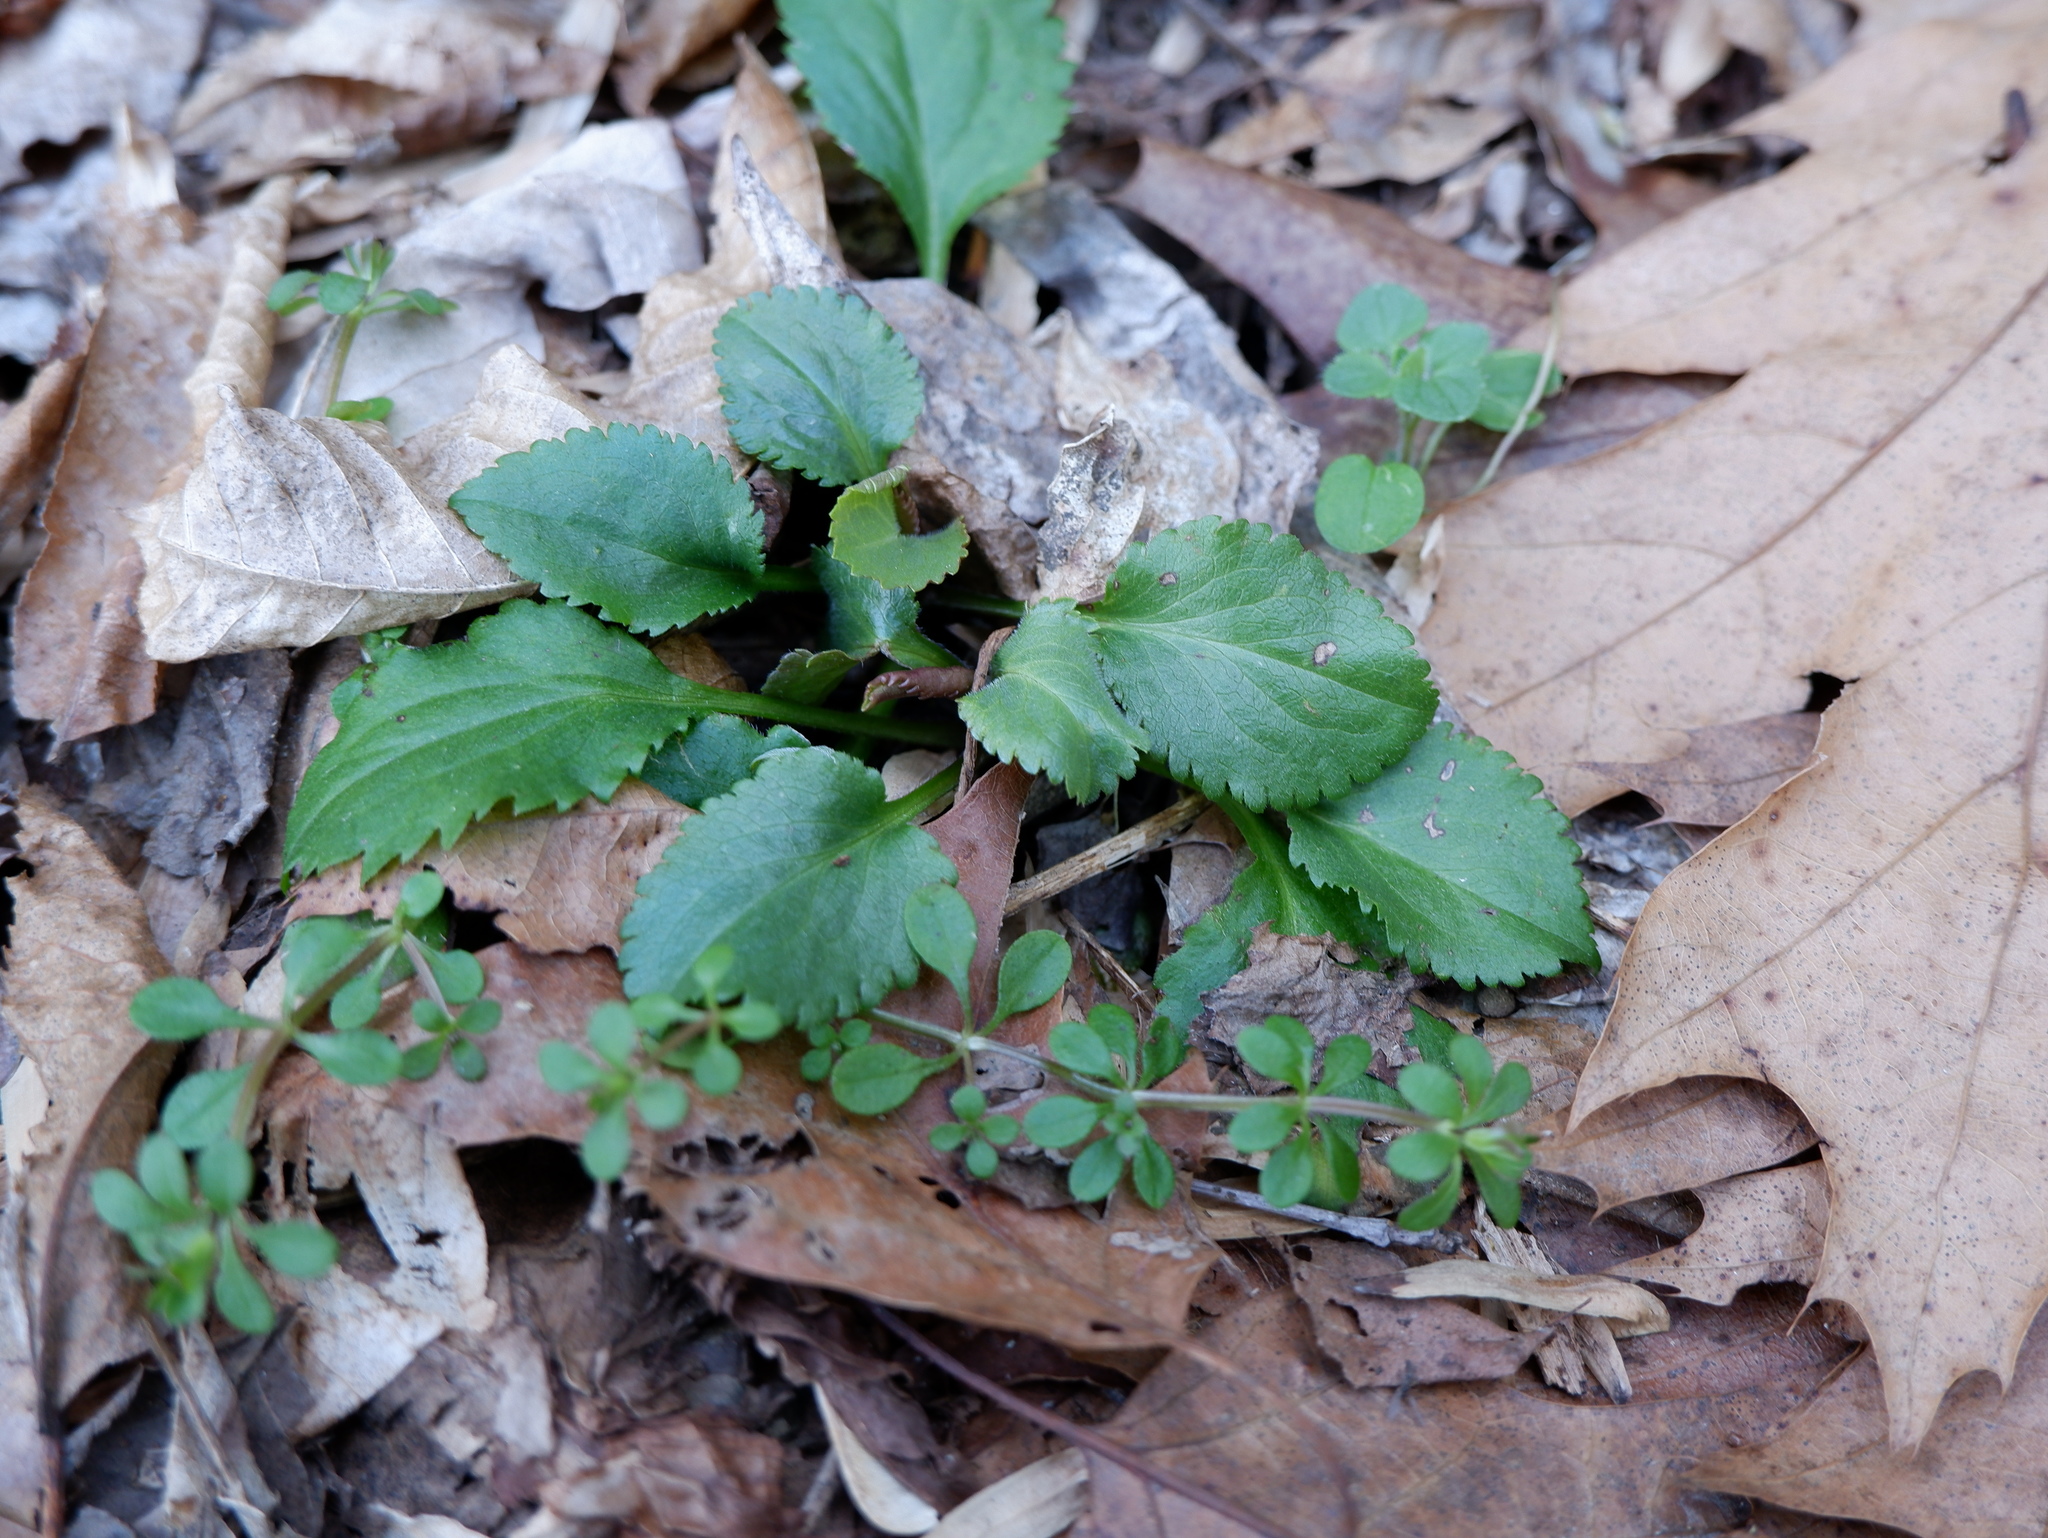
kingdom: Plantae
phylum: Tracheophyta
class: Magnoliopsida
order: Asterales
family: Asteraceae
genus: Packera
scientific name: Packera aurea
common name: Golden groundsel
